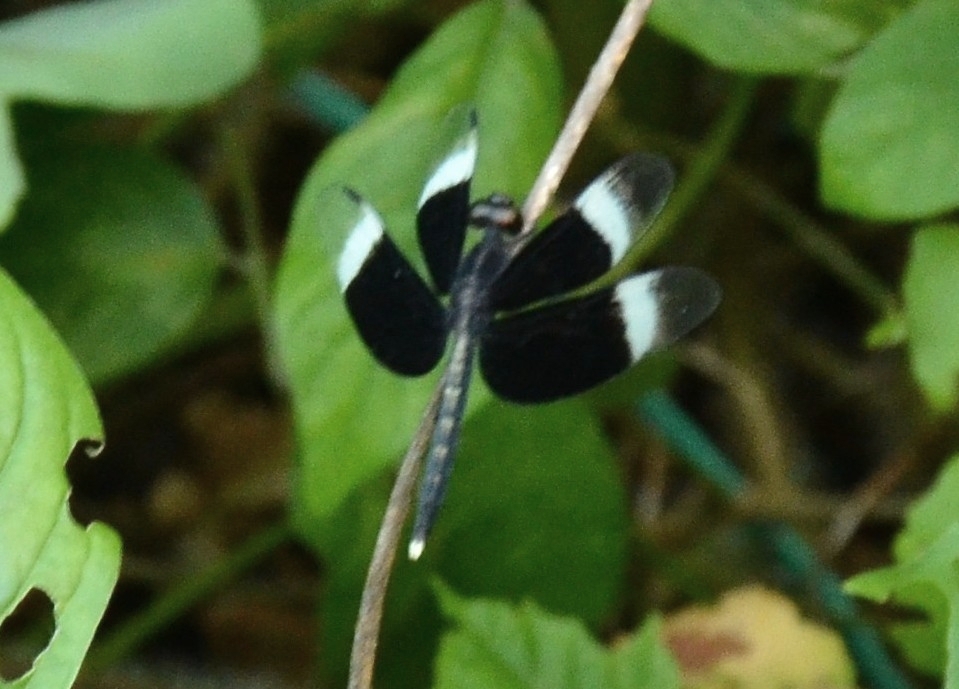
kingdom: Animalia
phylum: Arthropoda
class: Insecta
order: Odonata
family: Libellulidae
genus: Neurothemis
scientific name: Neurothemis tullia
